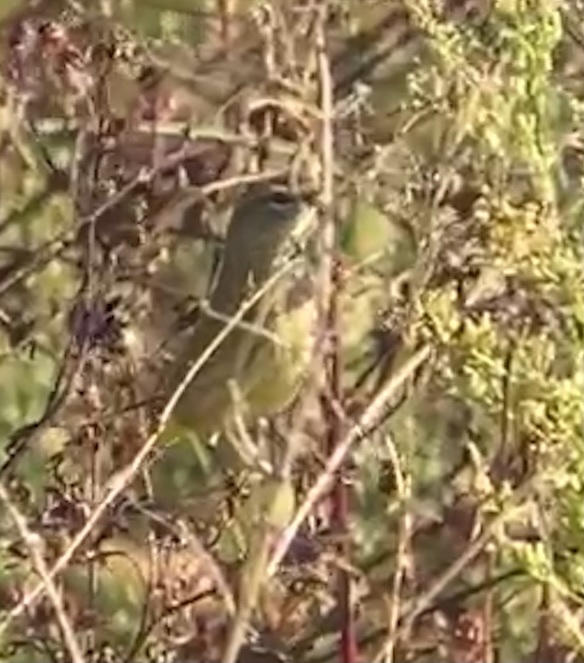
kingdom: Animalia
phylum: Chordata
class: Aves
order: Passeriformes
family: Parulidae
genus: Setophaga
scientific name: Setophaga palmarum
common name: Palm warbler
